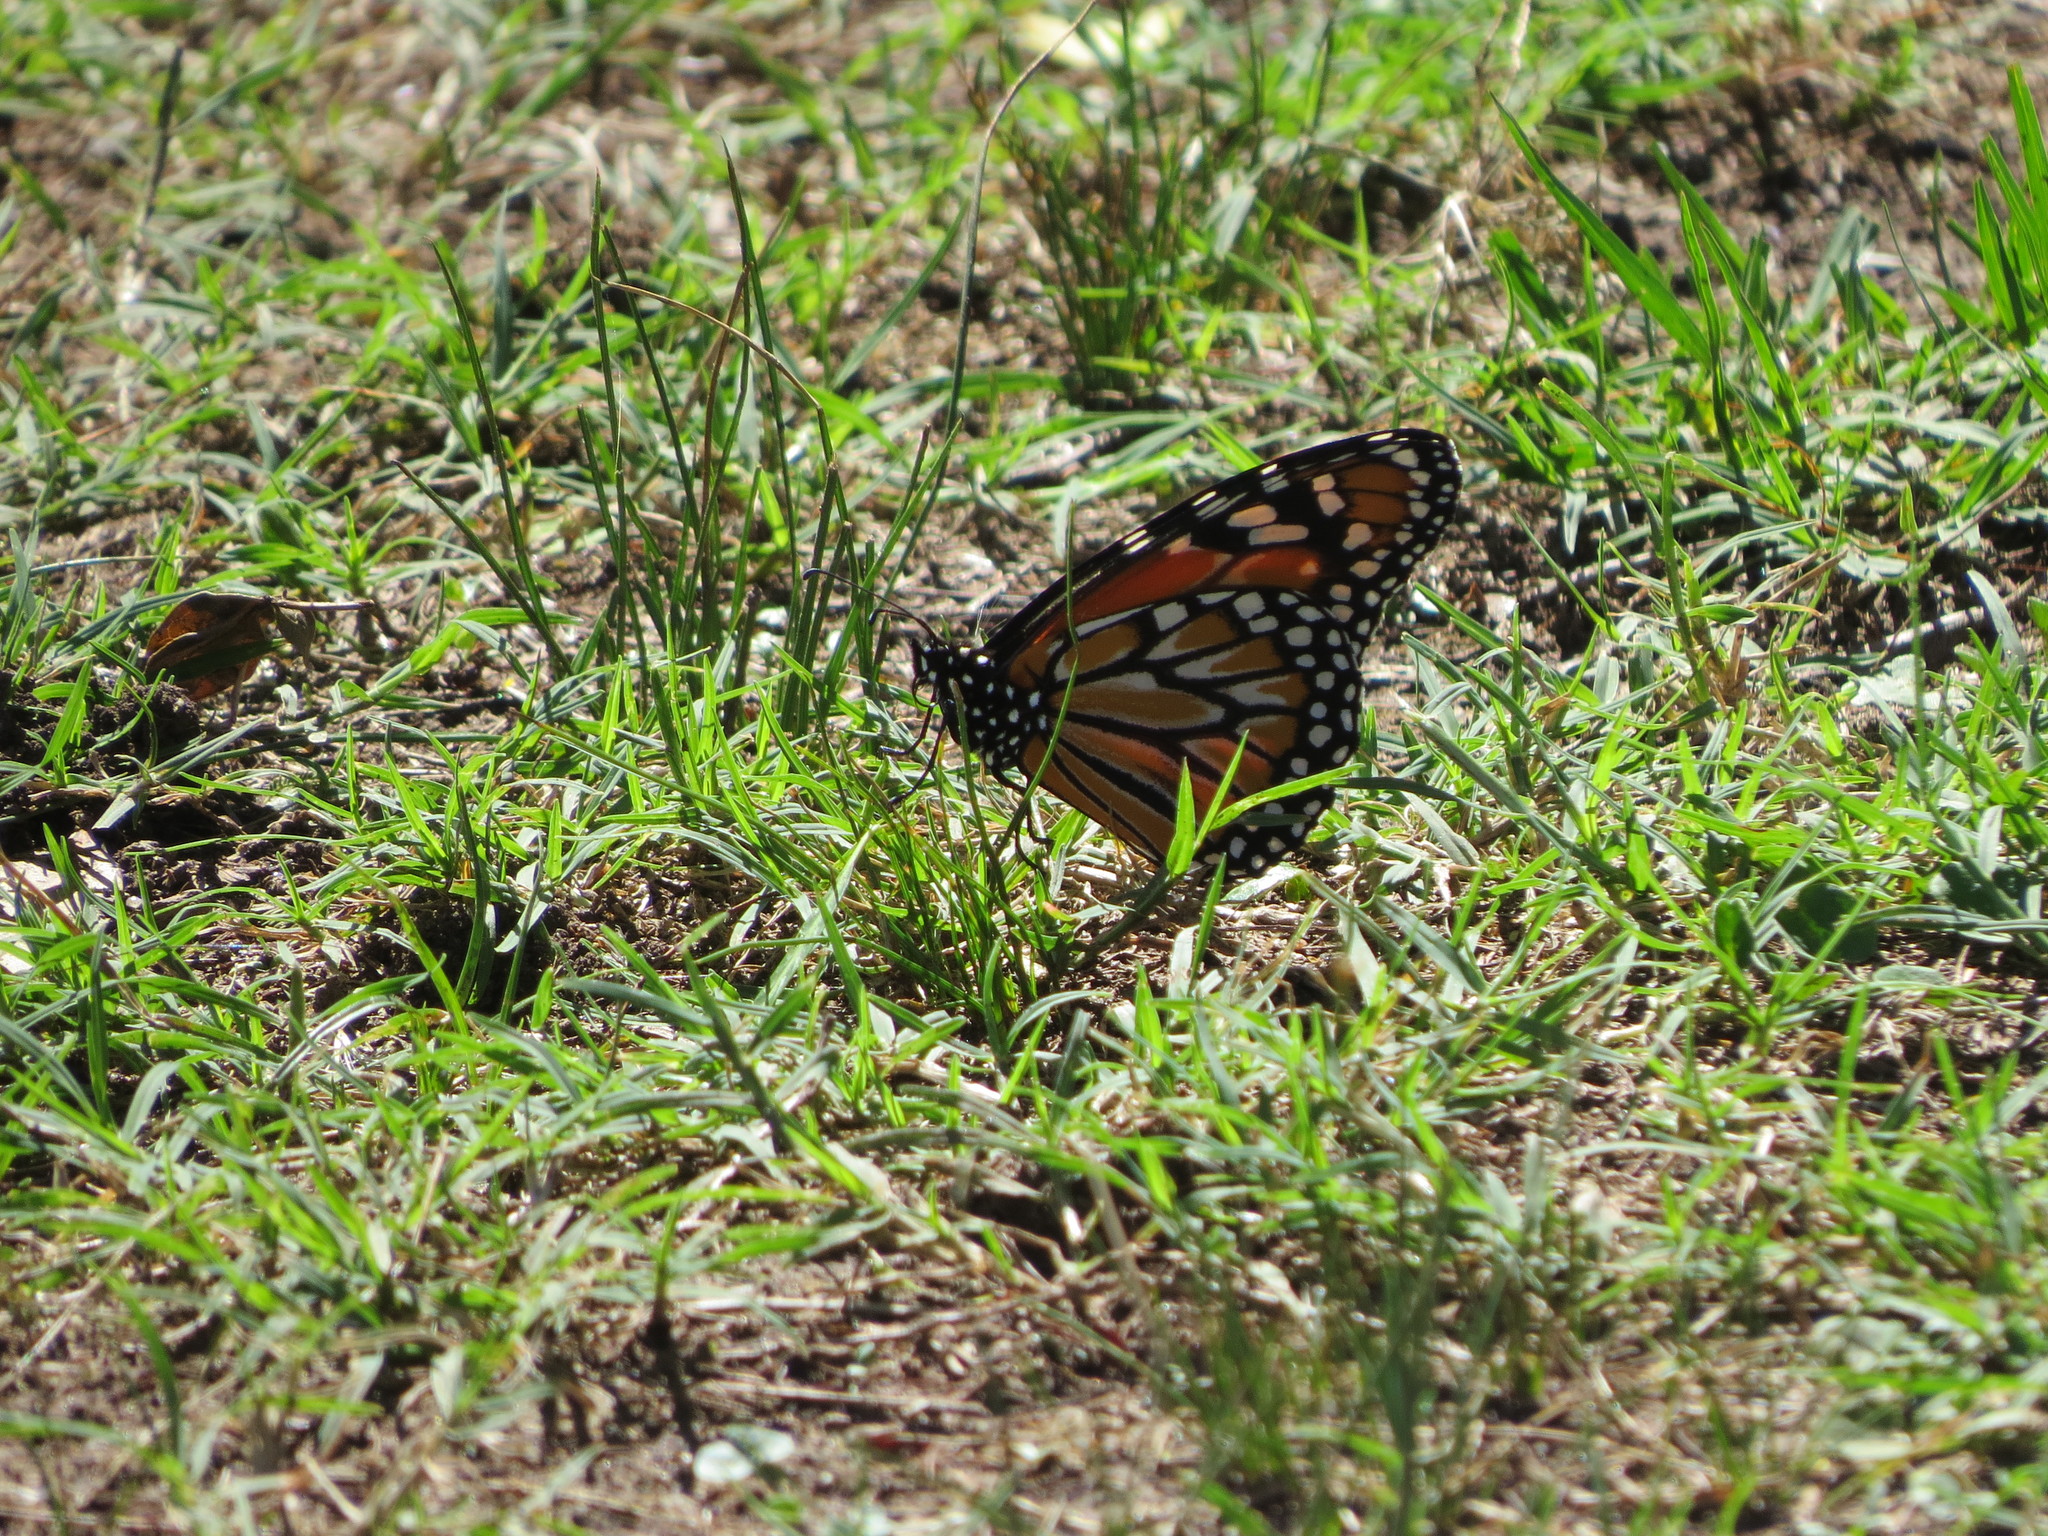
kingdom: Animalia
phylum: Arthropoda
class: Insecta
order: Lepidoptera
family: Nymphalidae
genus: Danaus
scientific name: Danaus erippus
